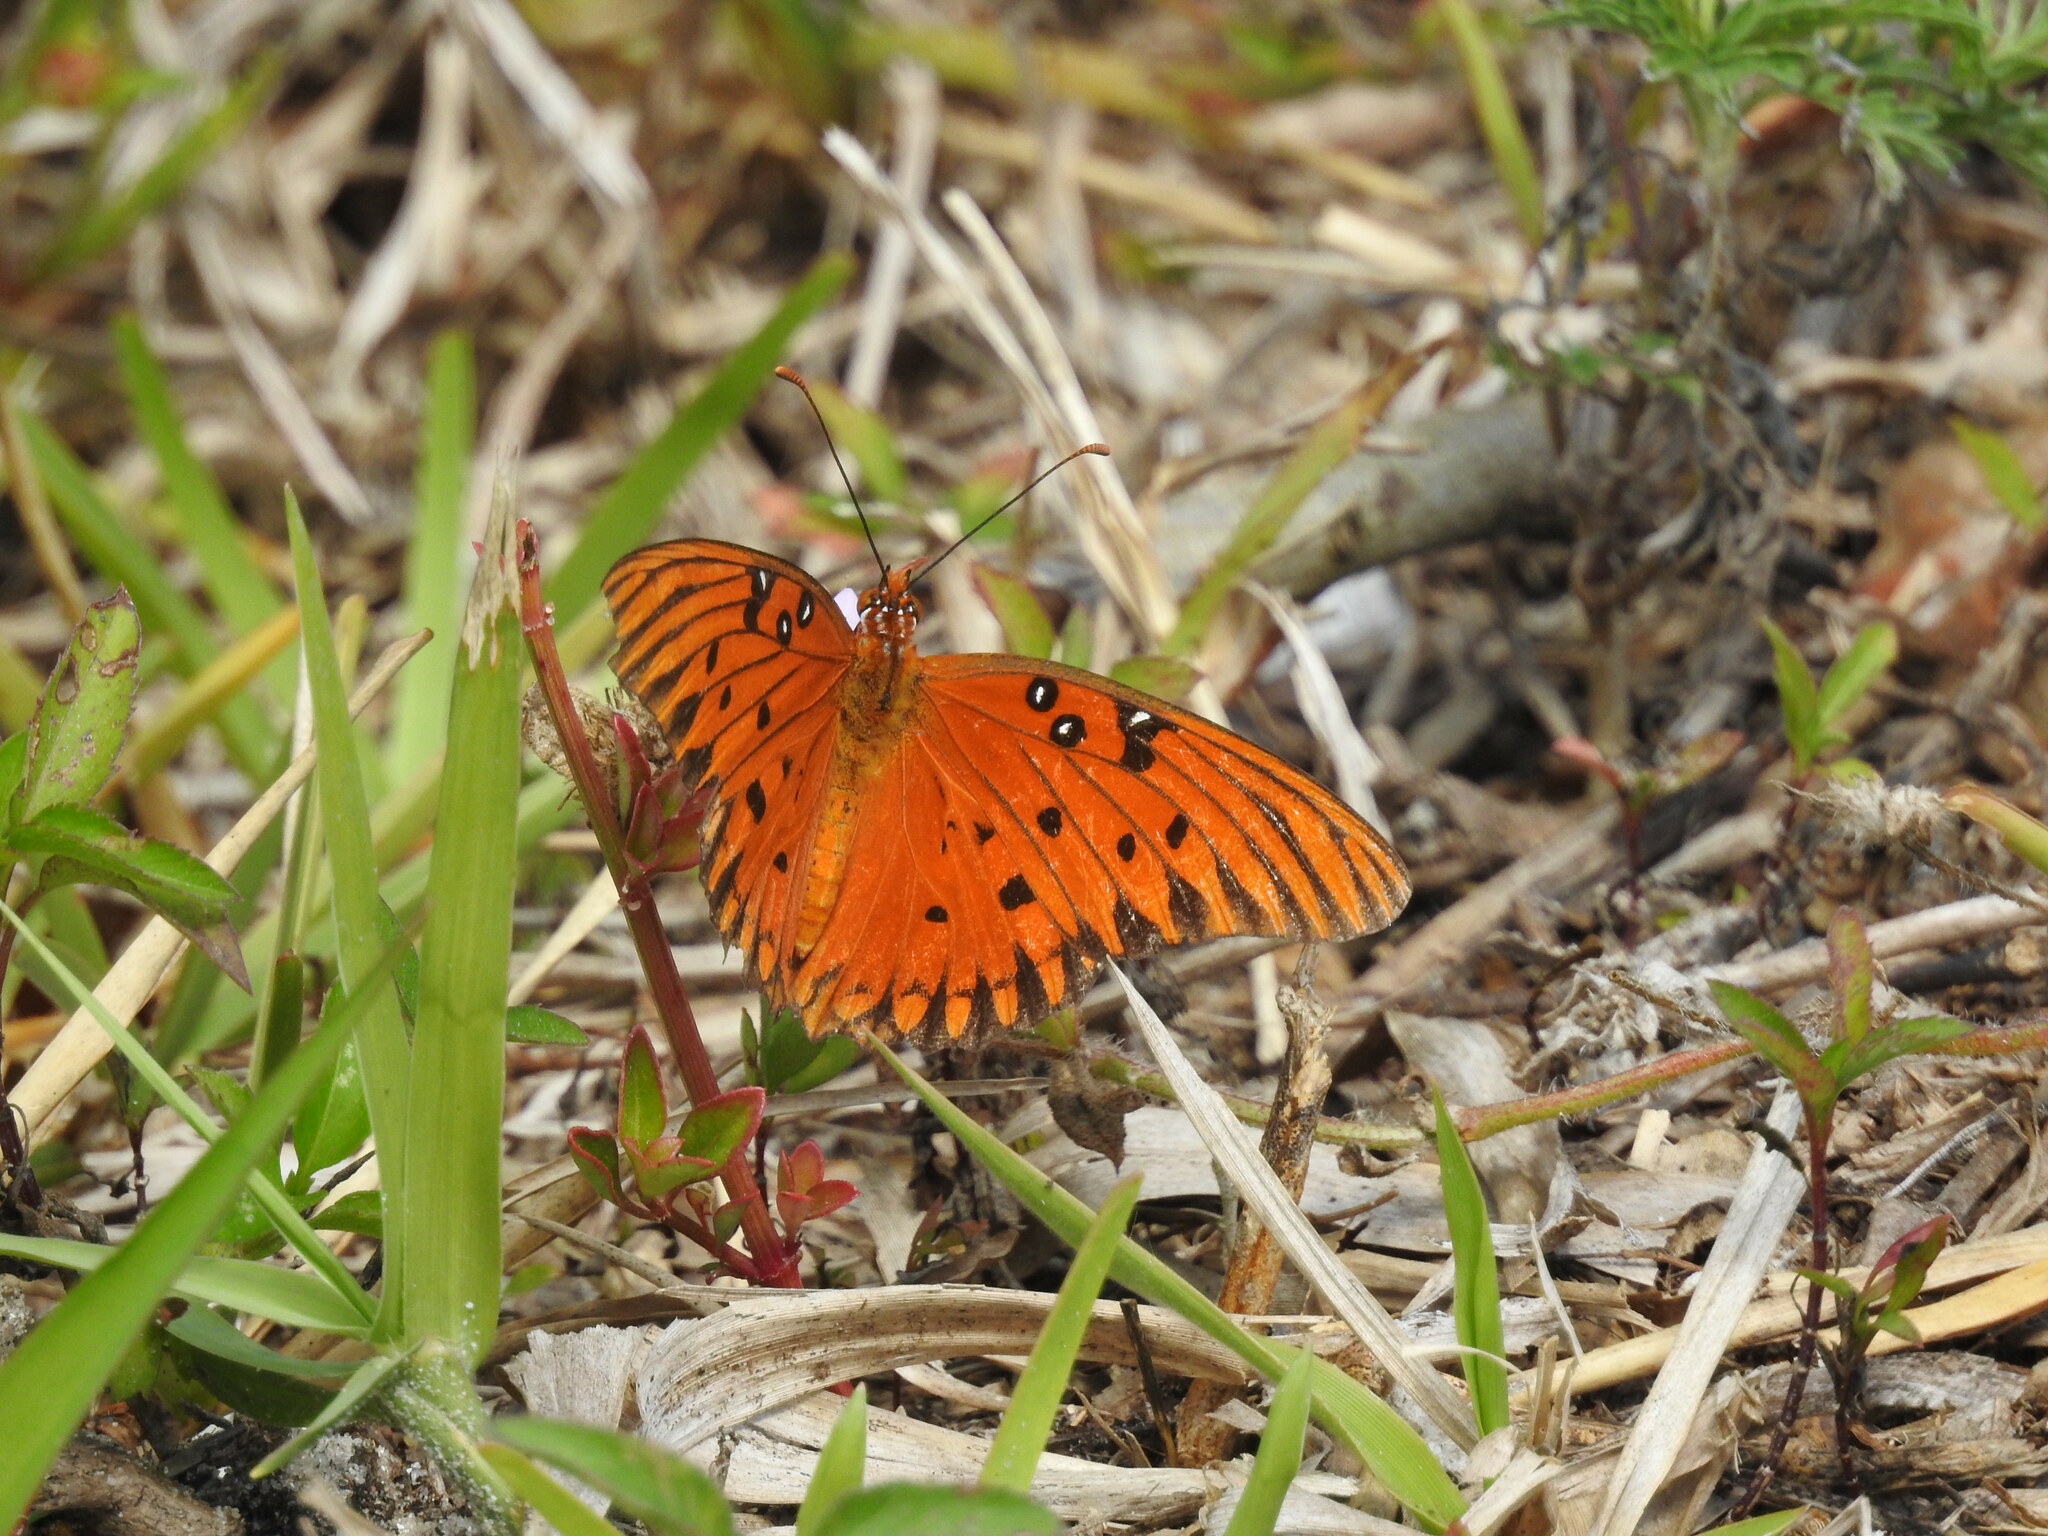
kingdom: Animalia
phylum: Arthropoda
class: Insecta
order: Lepidoptera
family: Nymphalidae
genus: Dione
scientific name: Dione vanillae
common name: Gulf fritillary
